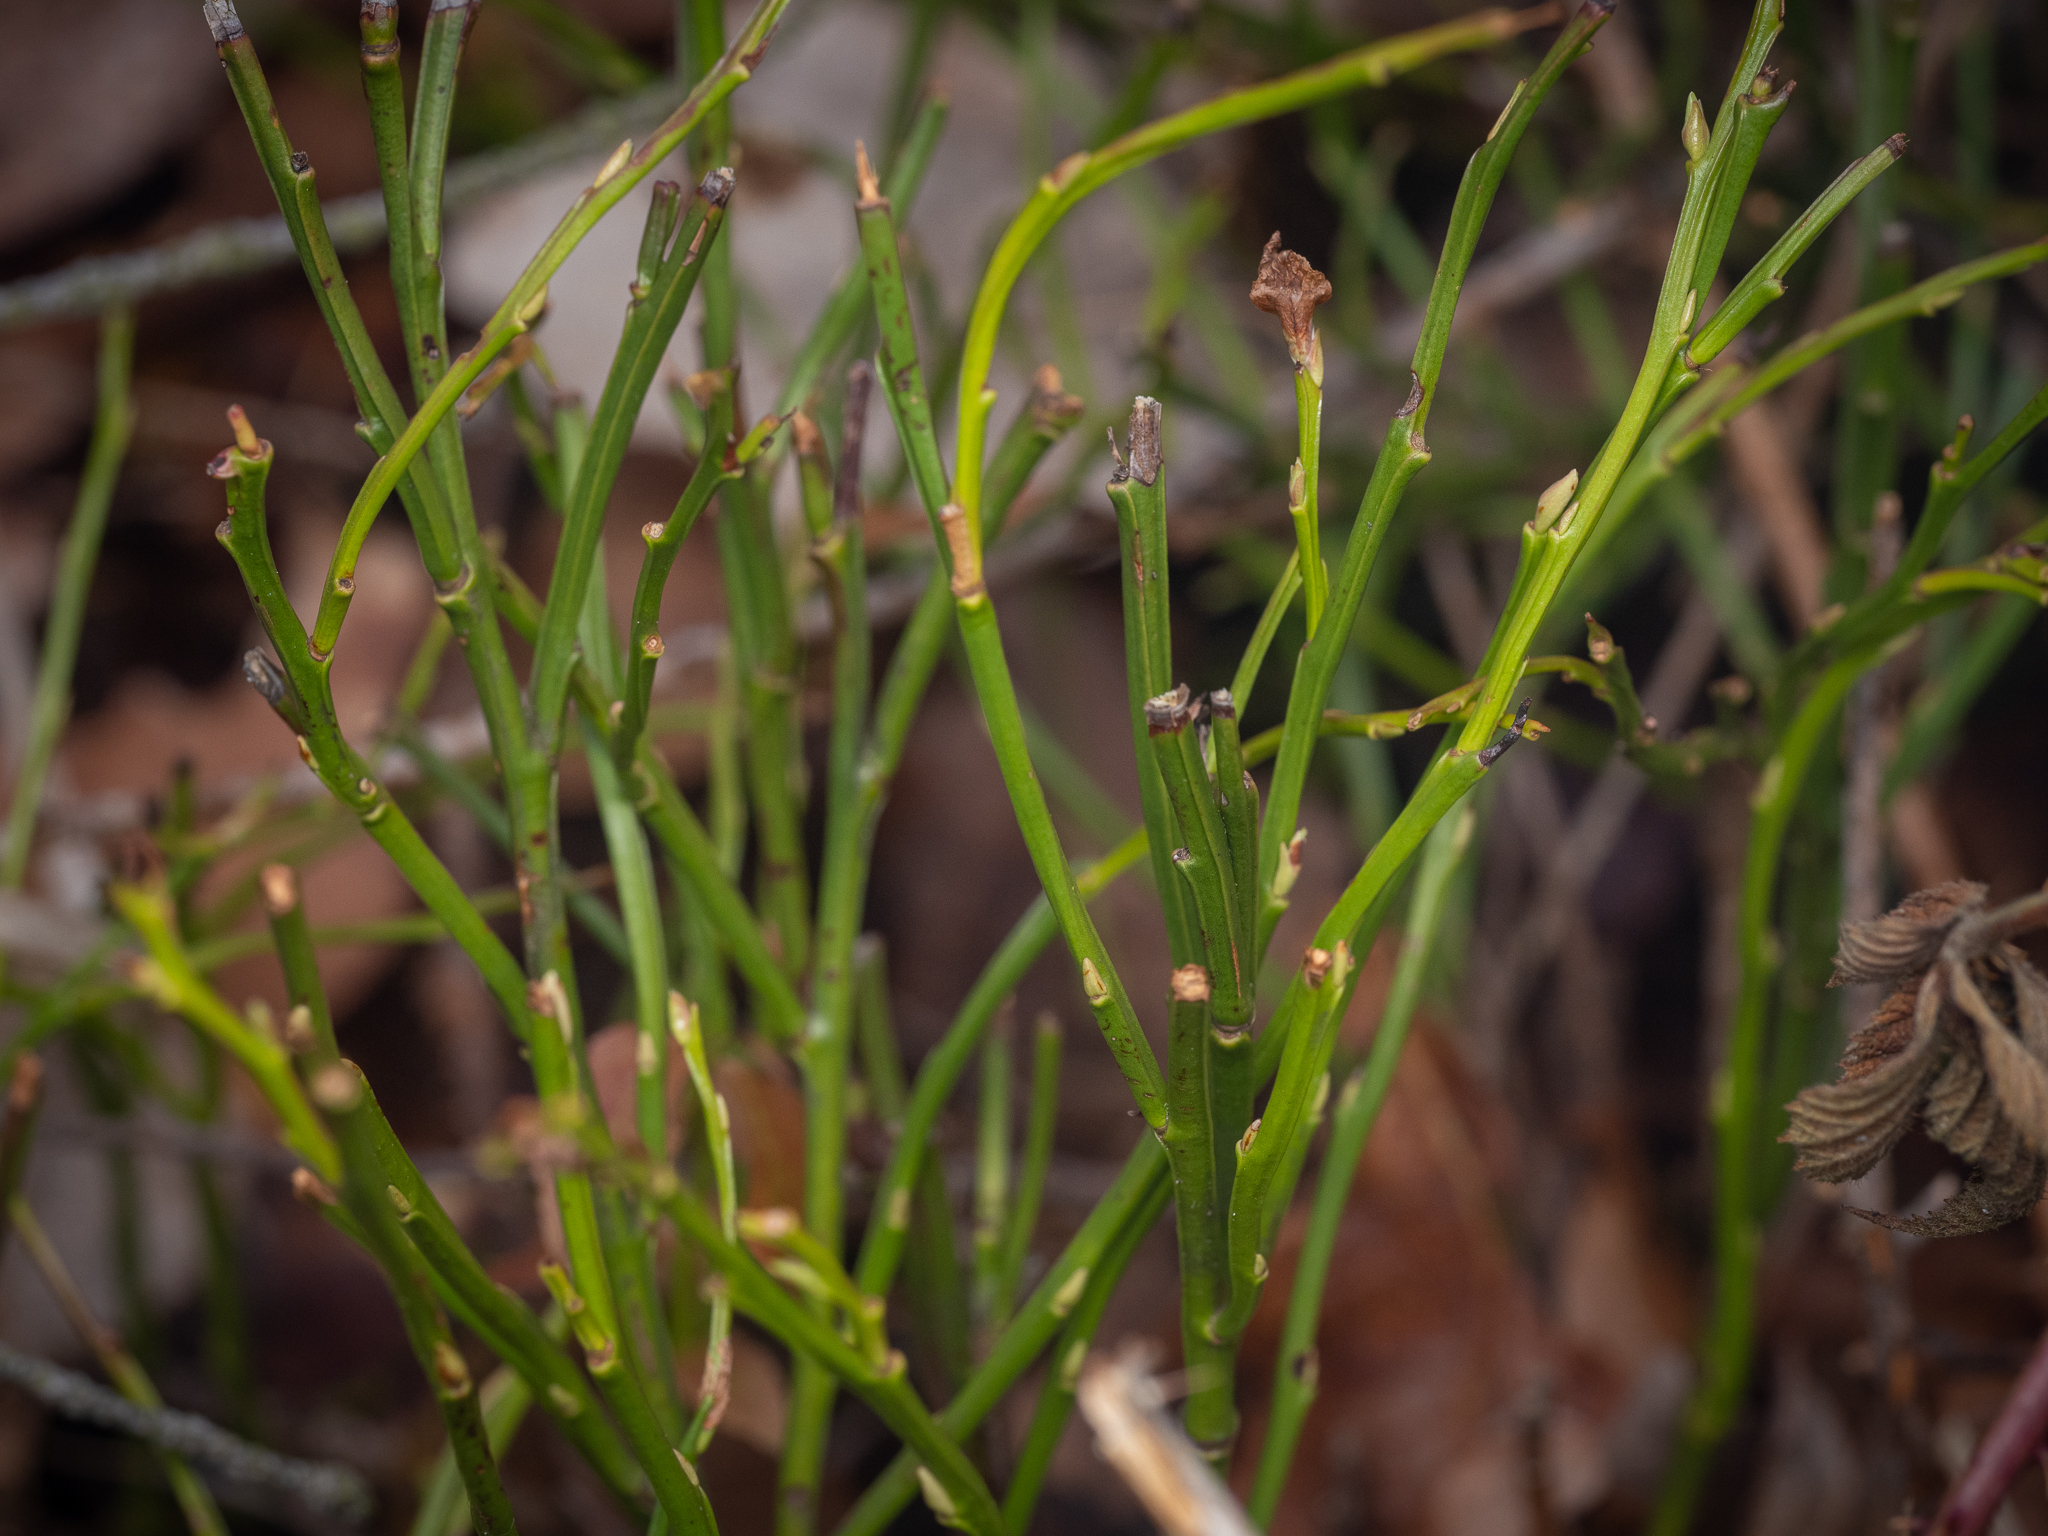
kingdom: Plantae
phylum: Tracheophyta
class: Magnoliopsida
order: Ericales
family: Ericaceae
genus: Vaccinium
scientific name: Vaccinium myrtillus
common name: Bilberry
